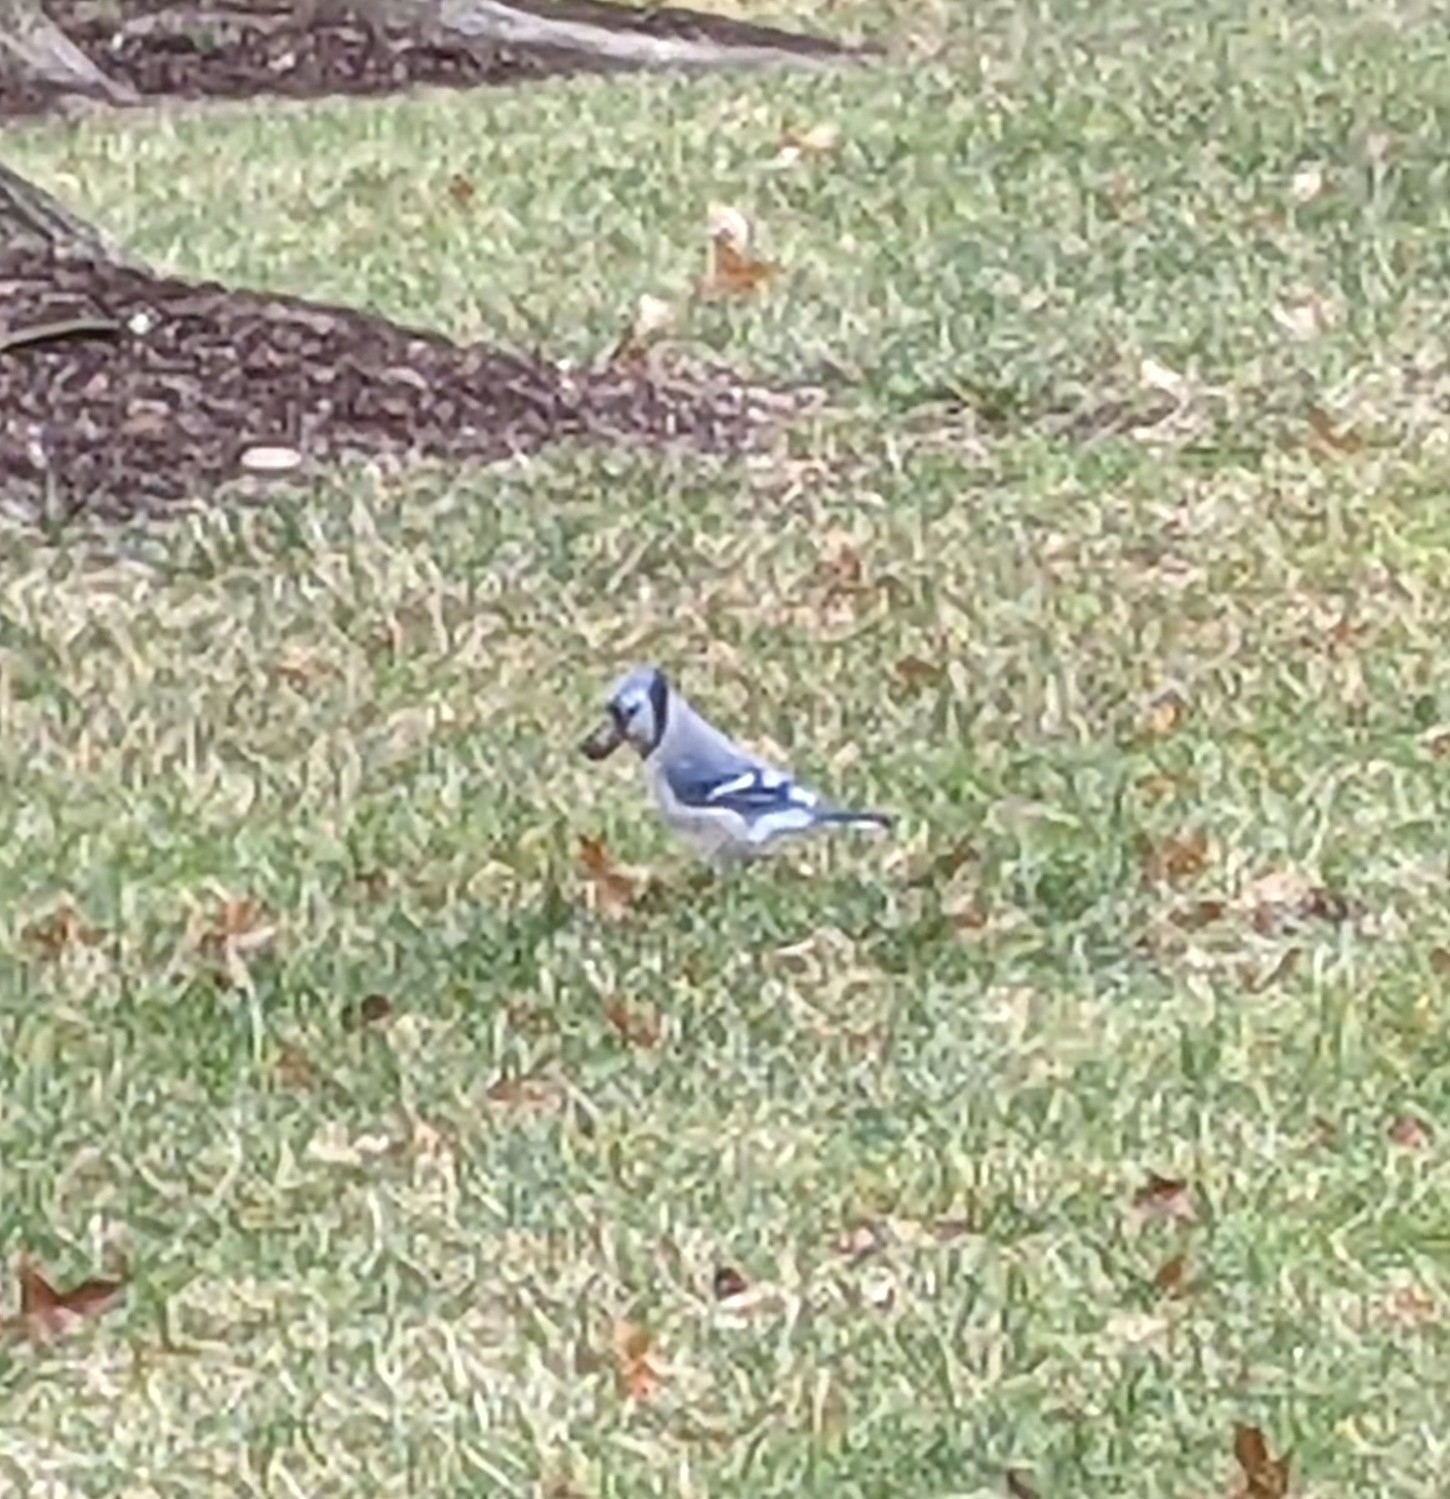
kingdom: Animalia
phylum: Chordata
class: Aves
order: Passeriformes
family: Corvidae
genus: Cyanocitta
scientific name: Cyanocitta cristata
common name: Blue jay
